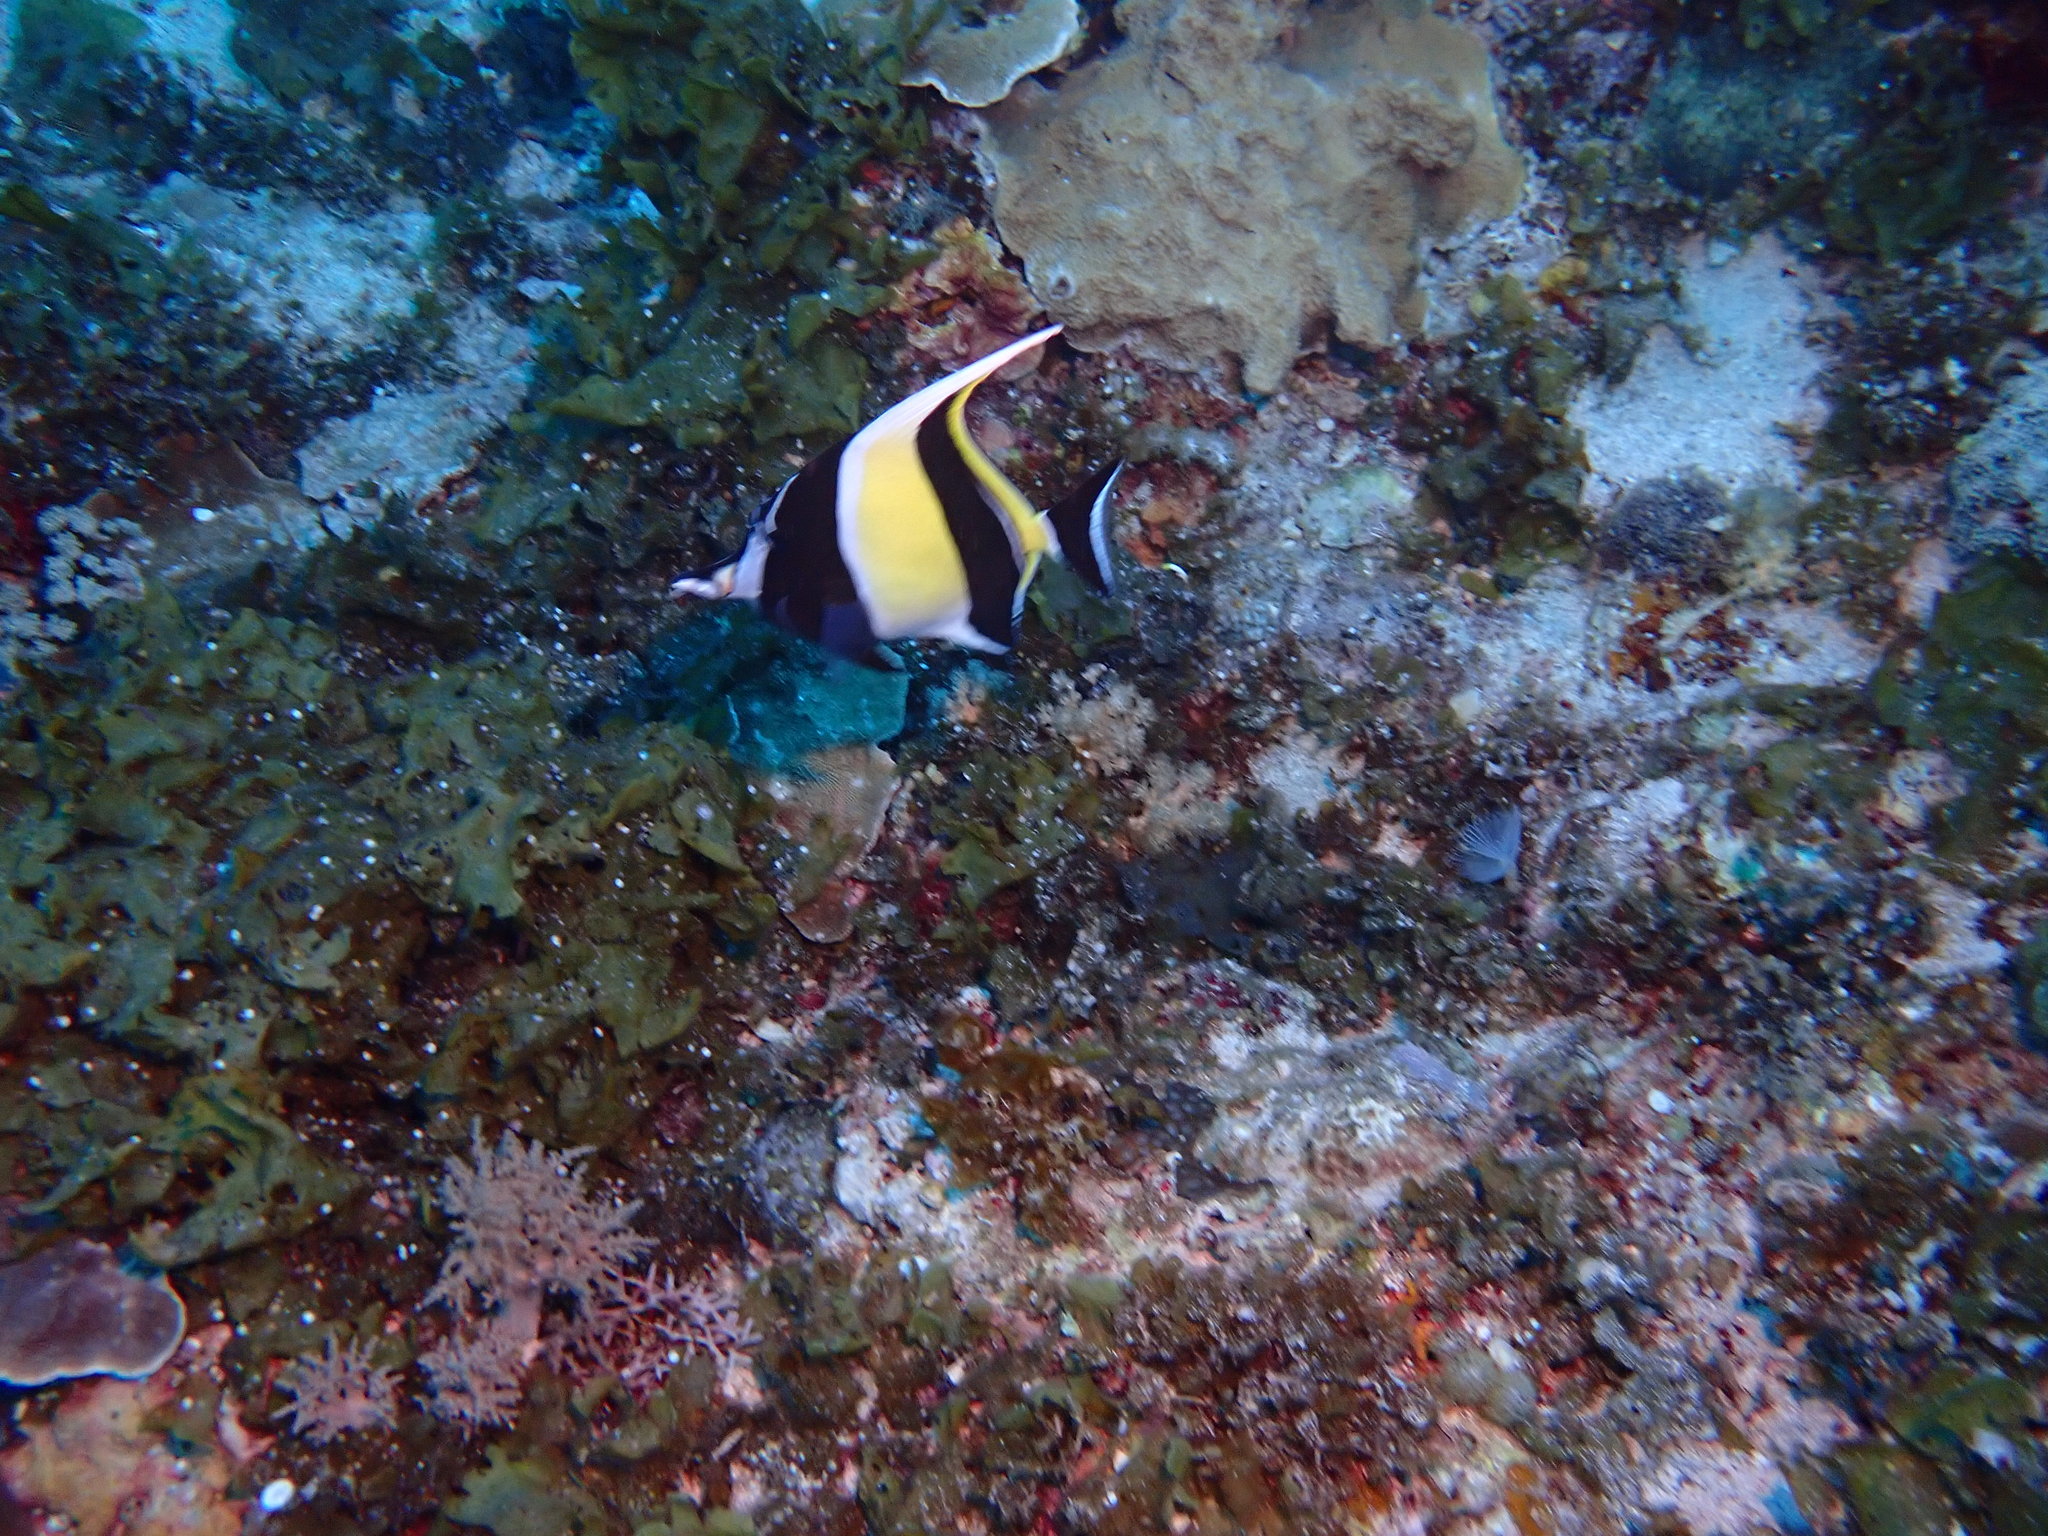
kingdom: Animalia
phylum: Chordata
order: Perciformes
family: Zanclidae
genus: Zanclus
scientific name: Zanclus cornutus
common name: Moorish idol
